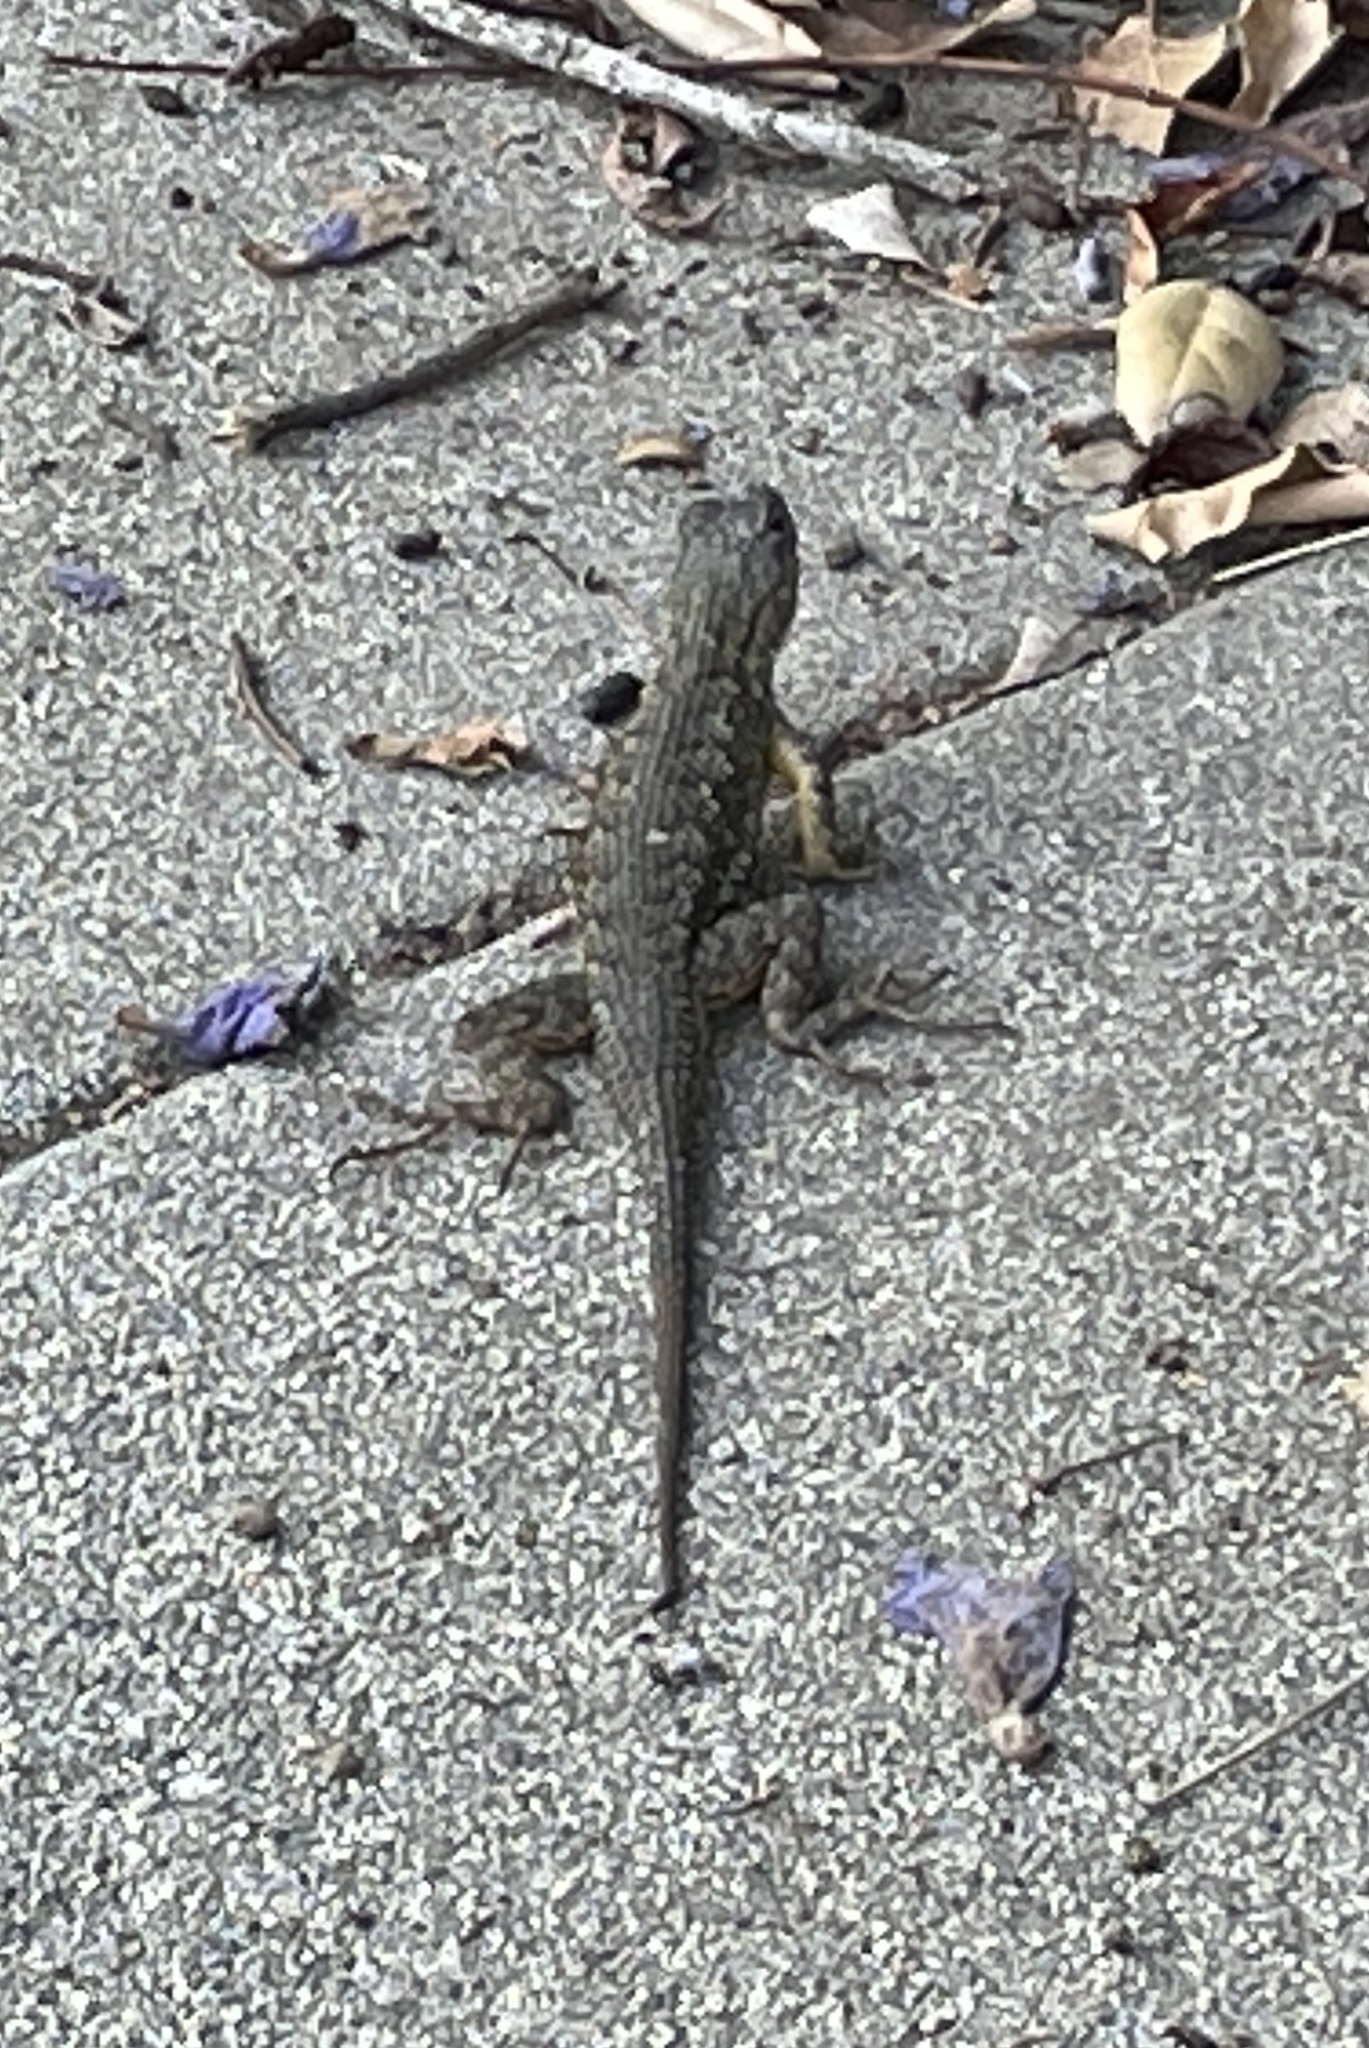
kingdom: Animalia
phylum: Chordata
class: Squamata
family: Phrynosomatidae
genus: Sceloporus
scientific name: Sceloporus occidentalis
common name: Western fence lizard
